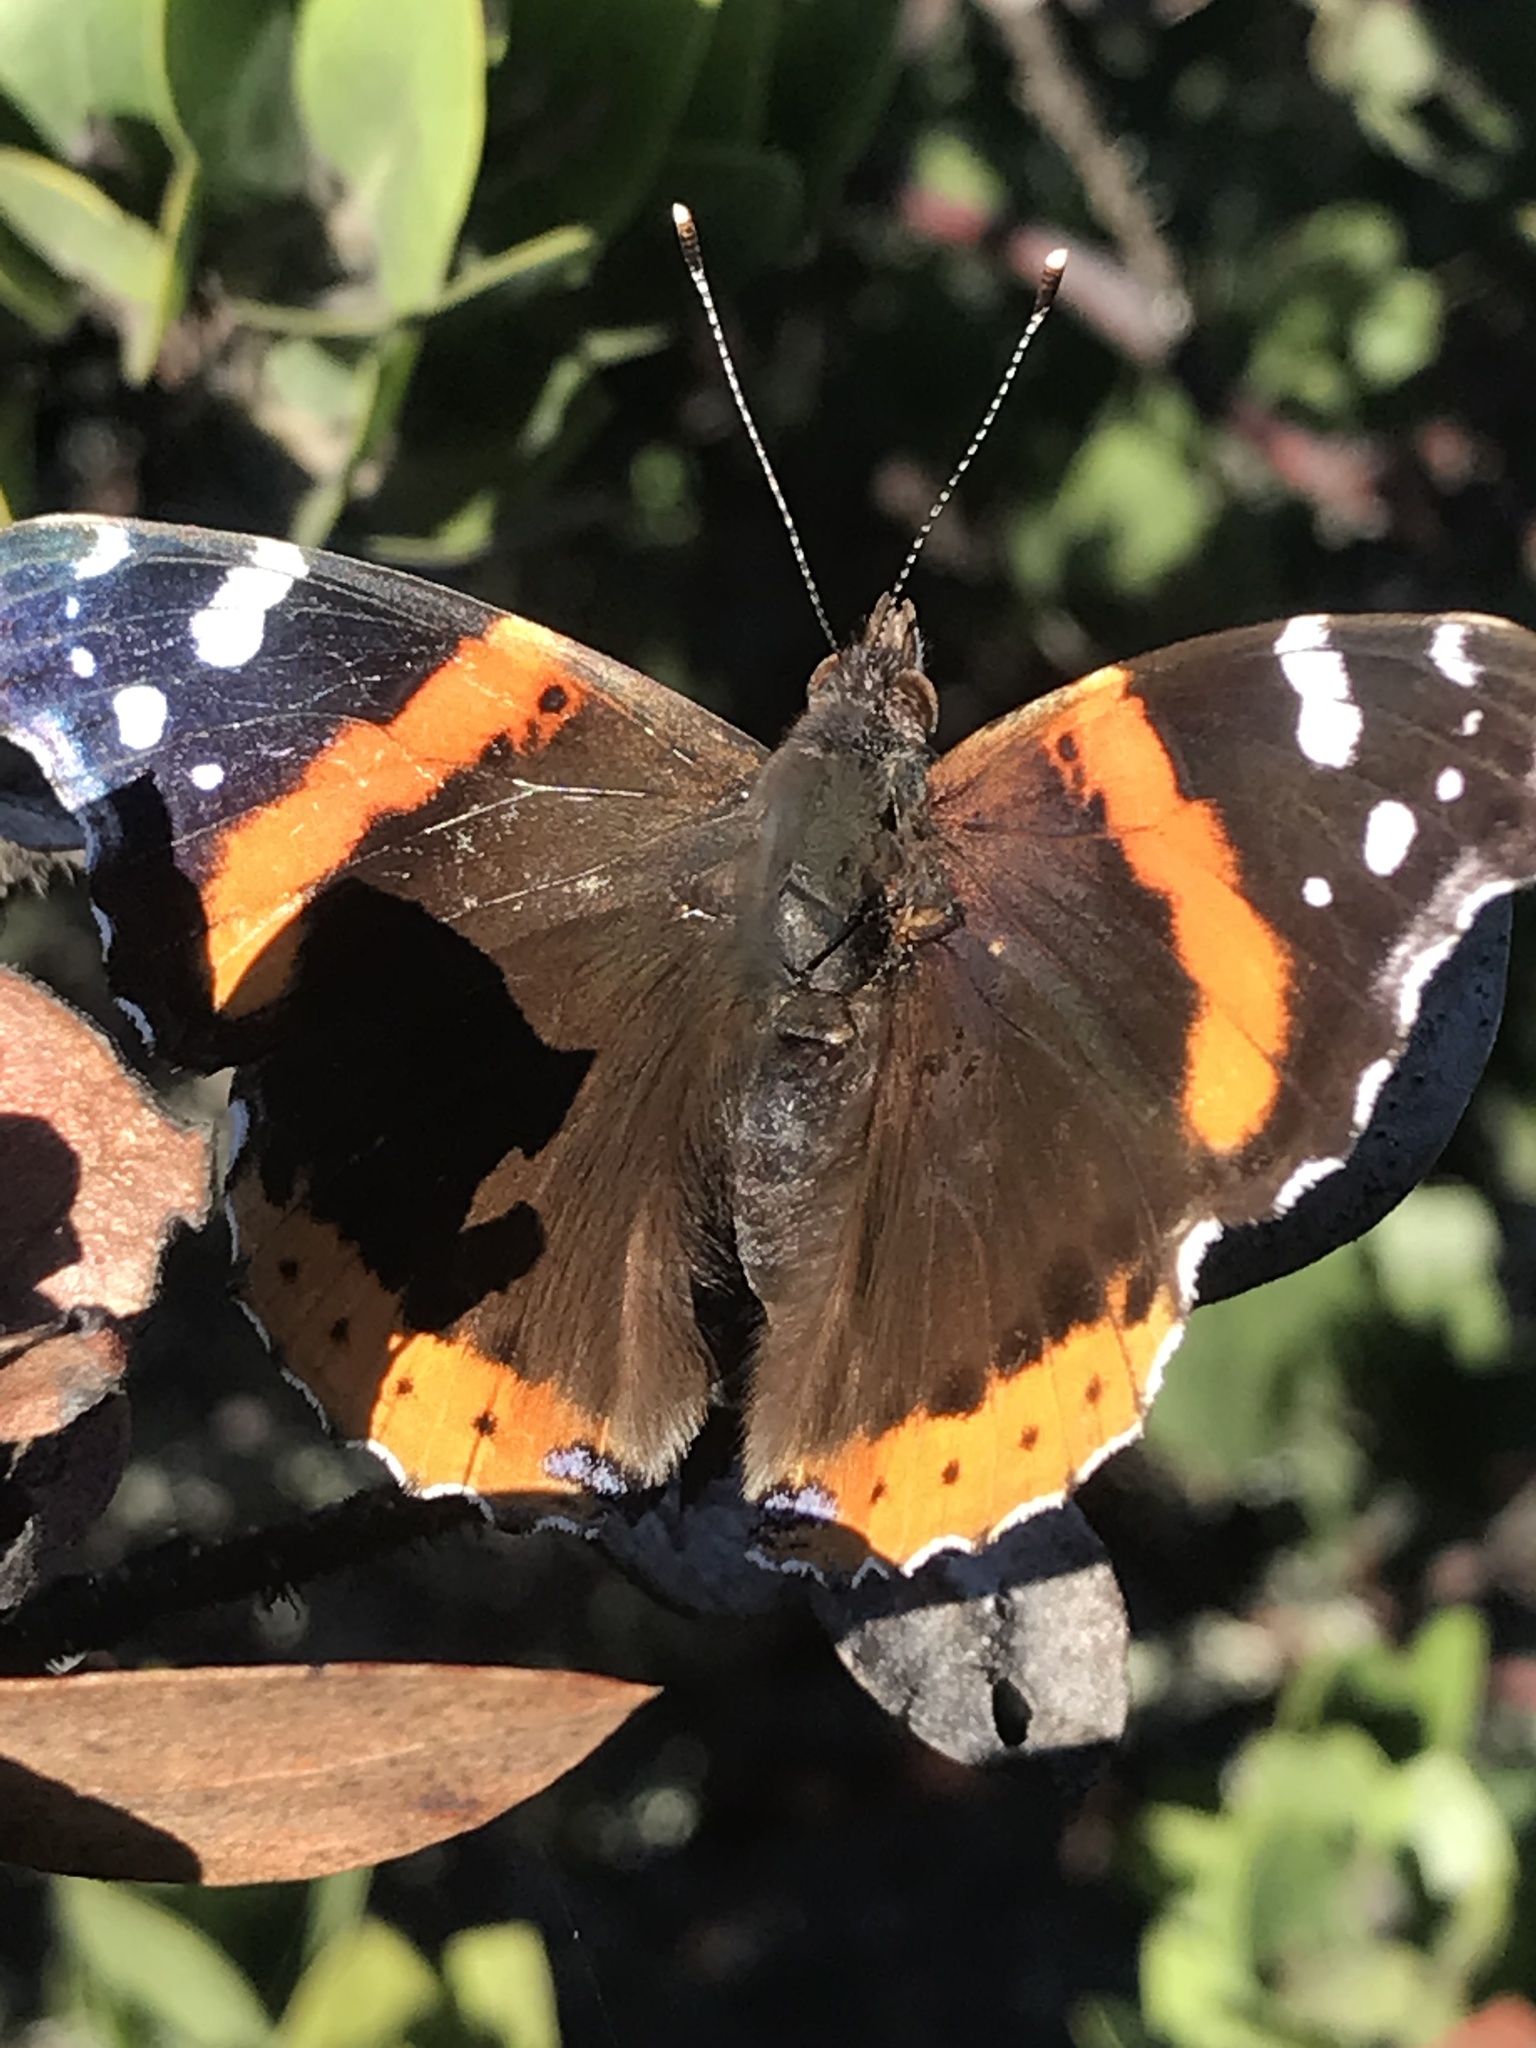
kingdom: Animalia
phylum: Arthropoda
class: Insecta
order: Lepidoptera
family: Nymphalidae
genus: Vanessa
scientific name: Vanessa atalanta
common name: Red admiral
